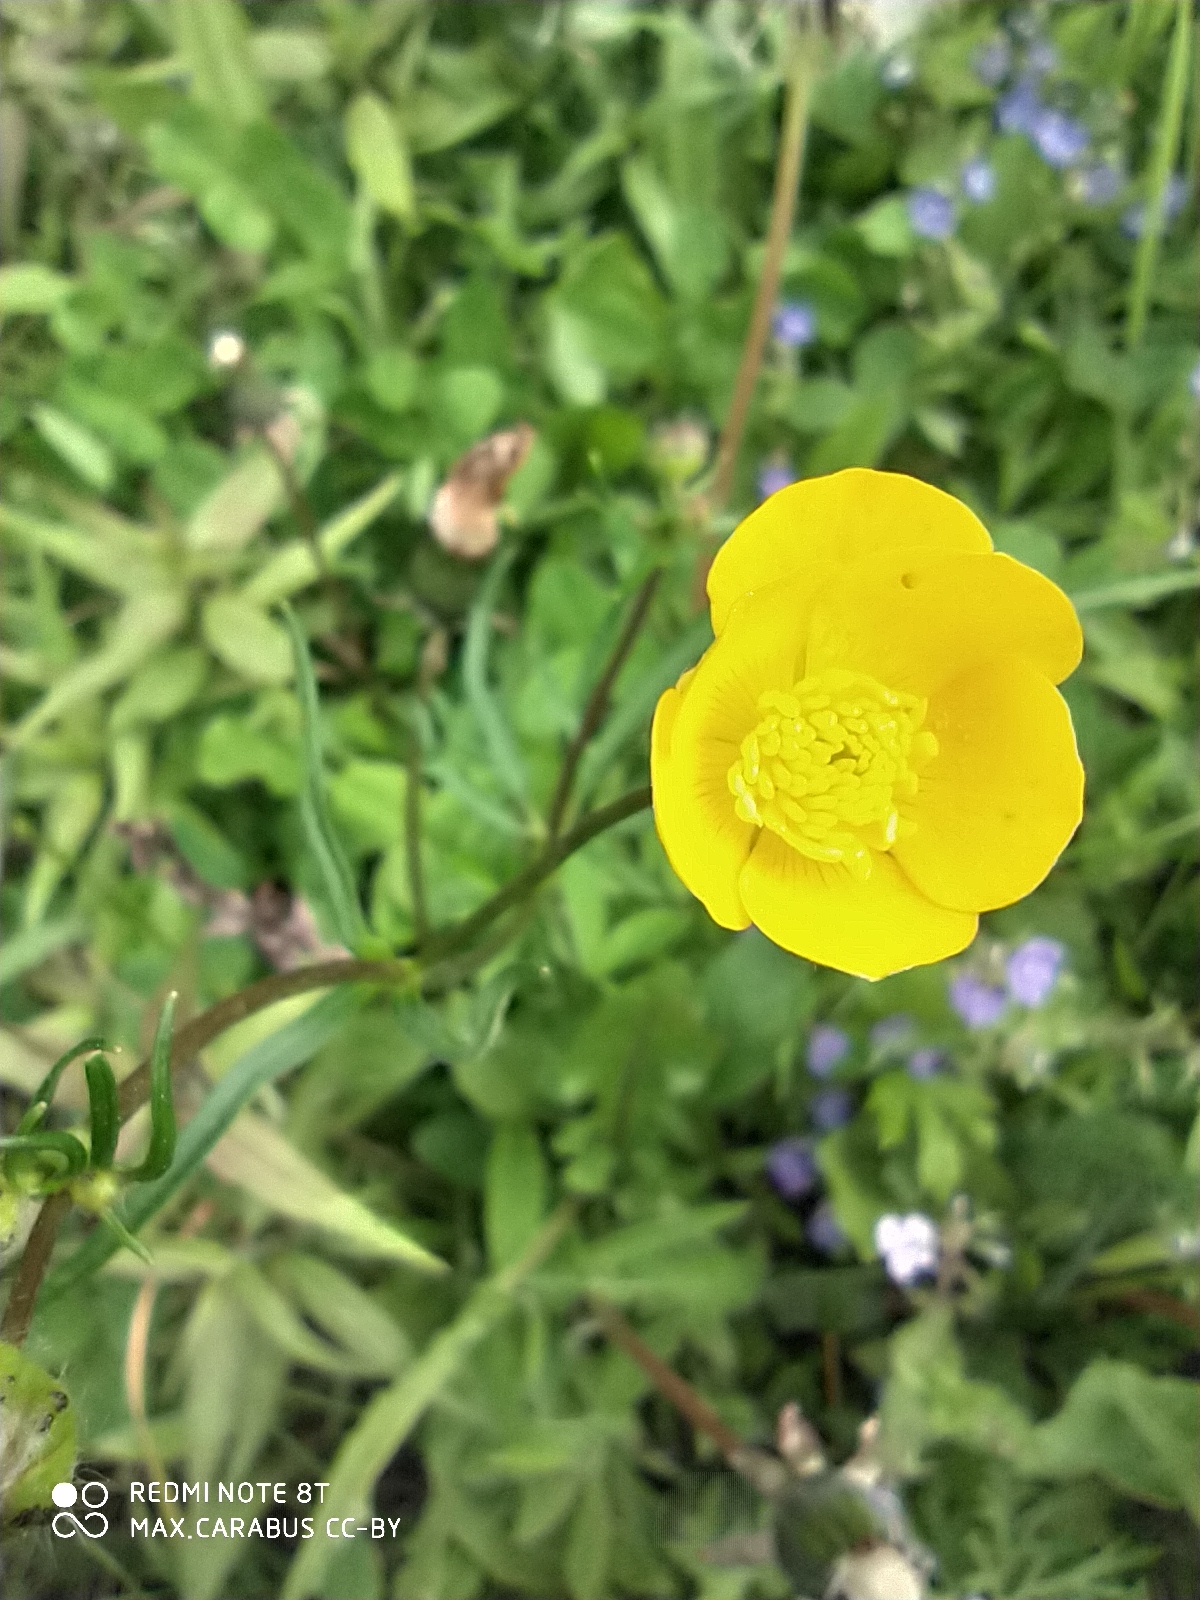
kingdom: Plantae
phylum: Tracheophyta
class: Magnoliopsida
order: Ranunculales
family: Ranunculaceae
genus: Ranunculus
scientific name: Ranunculus polyanthemos
